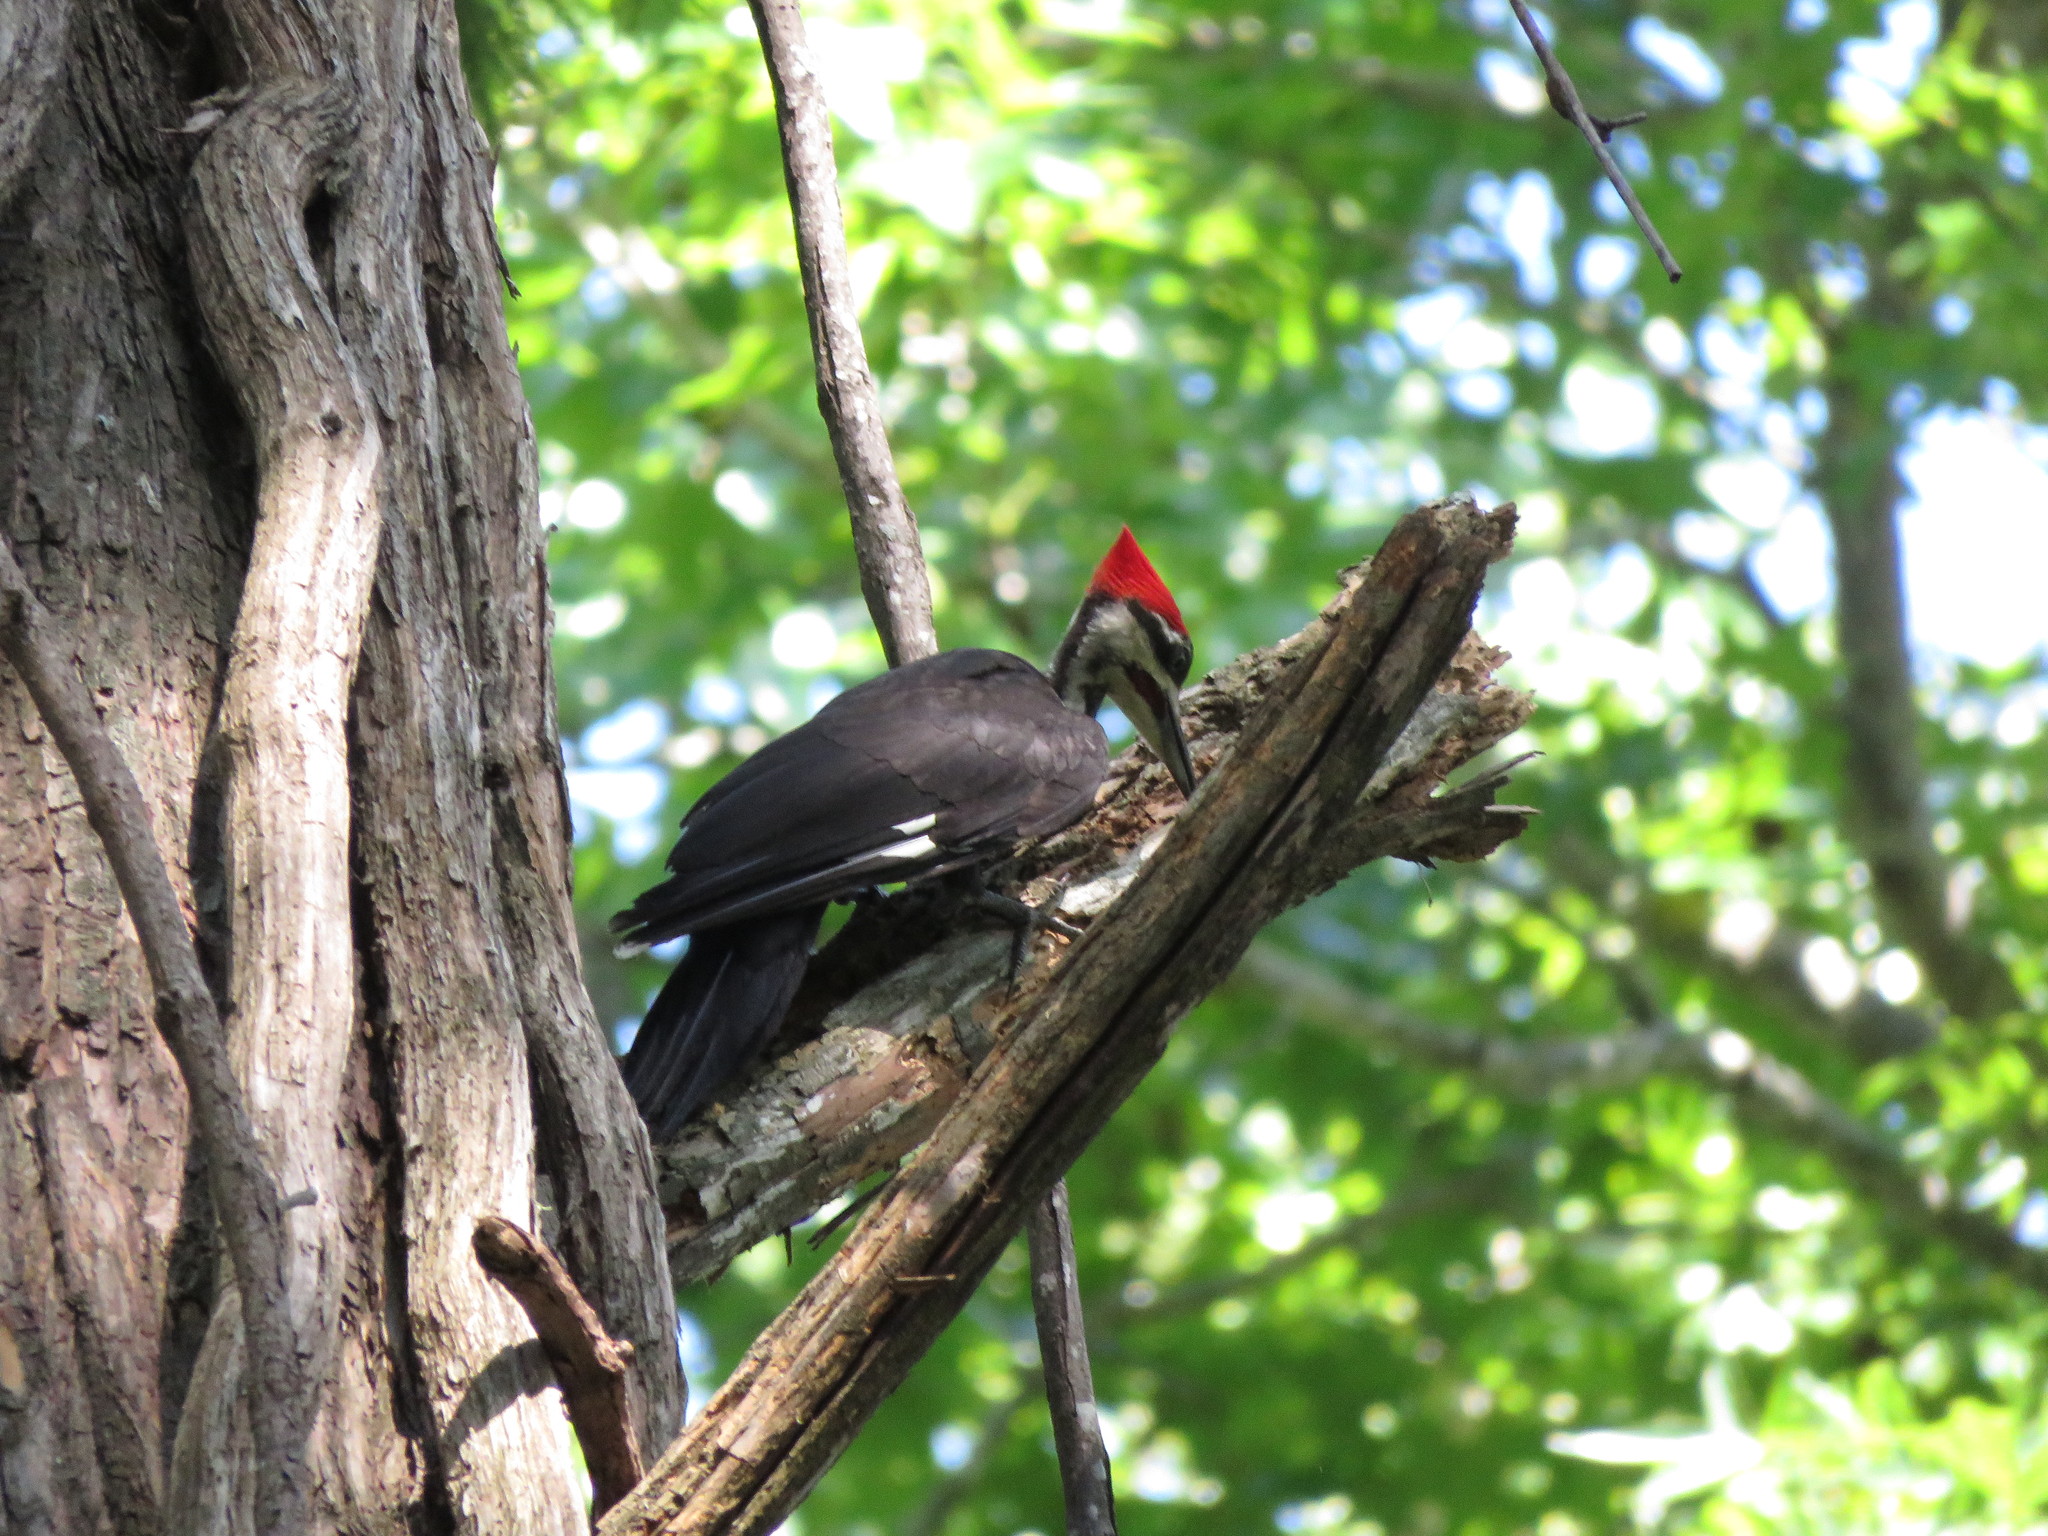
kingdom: Animalia
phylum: Chordata
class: Aves
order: Piciformes
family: Picidae
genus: Dryocopus
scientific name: Dryocopus pileatus
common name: Pileated woodpecker
